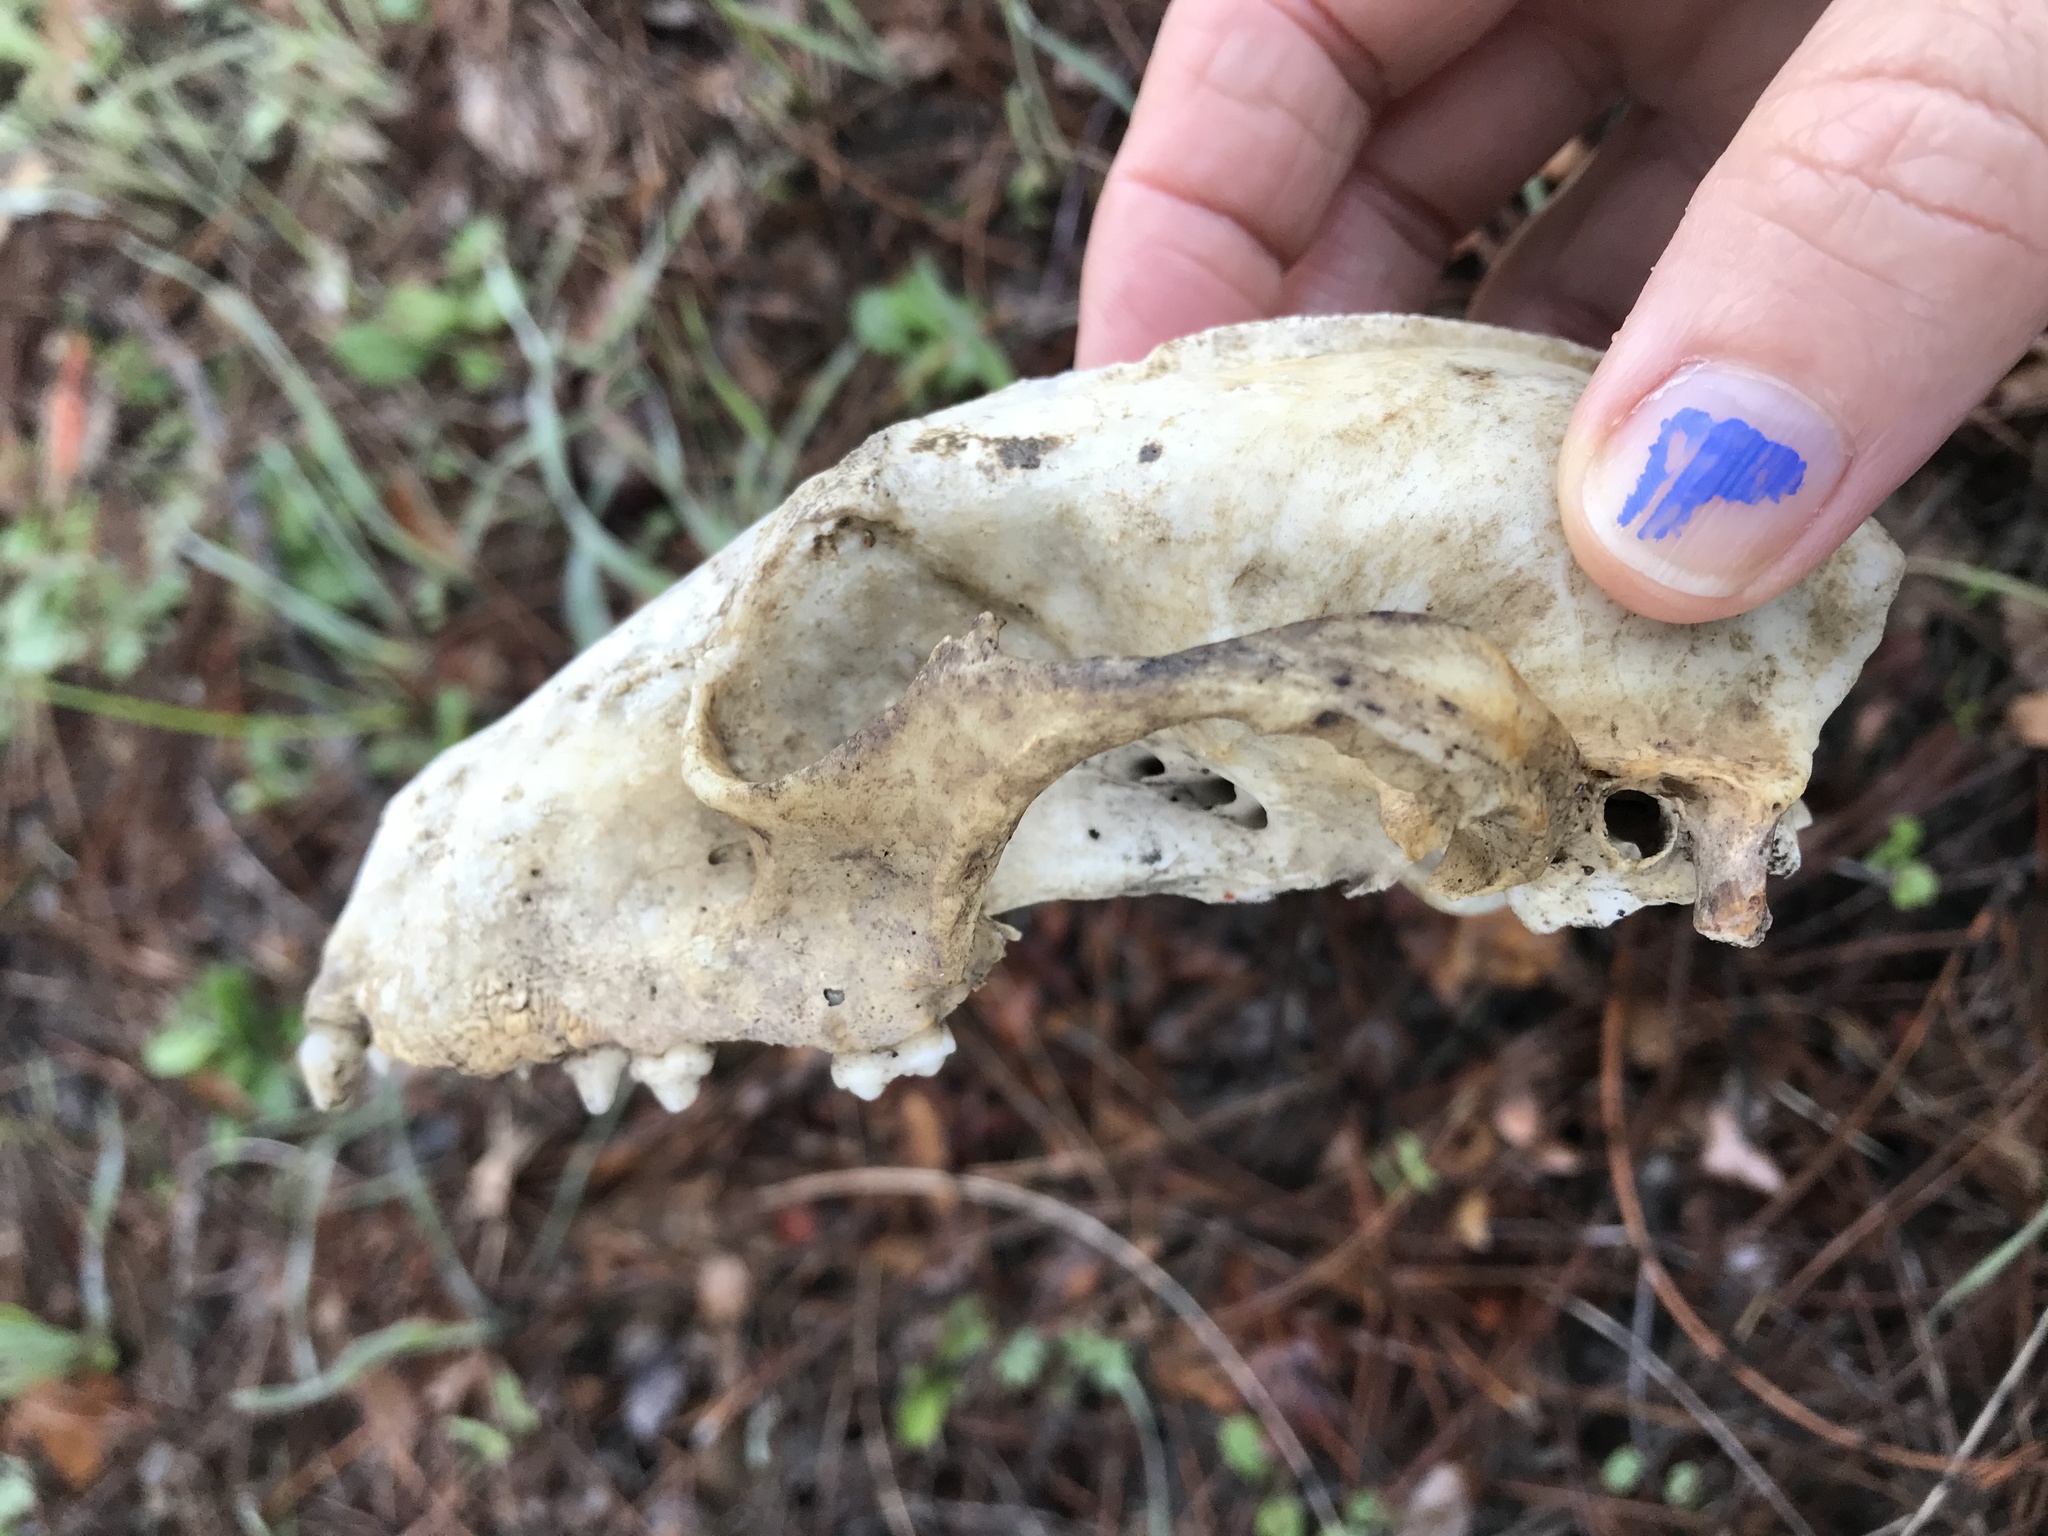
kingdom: Animalia
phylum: Chordata
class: Mammalia
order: Carnivora
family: Procyonidae
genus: Procyon
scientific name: Procyon lotor
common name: Raccoon
